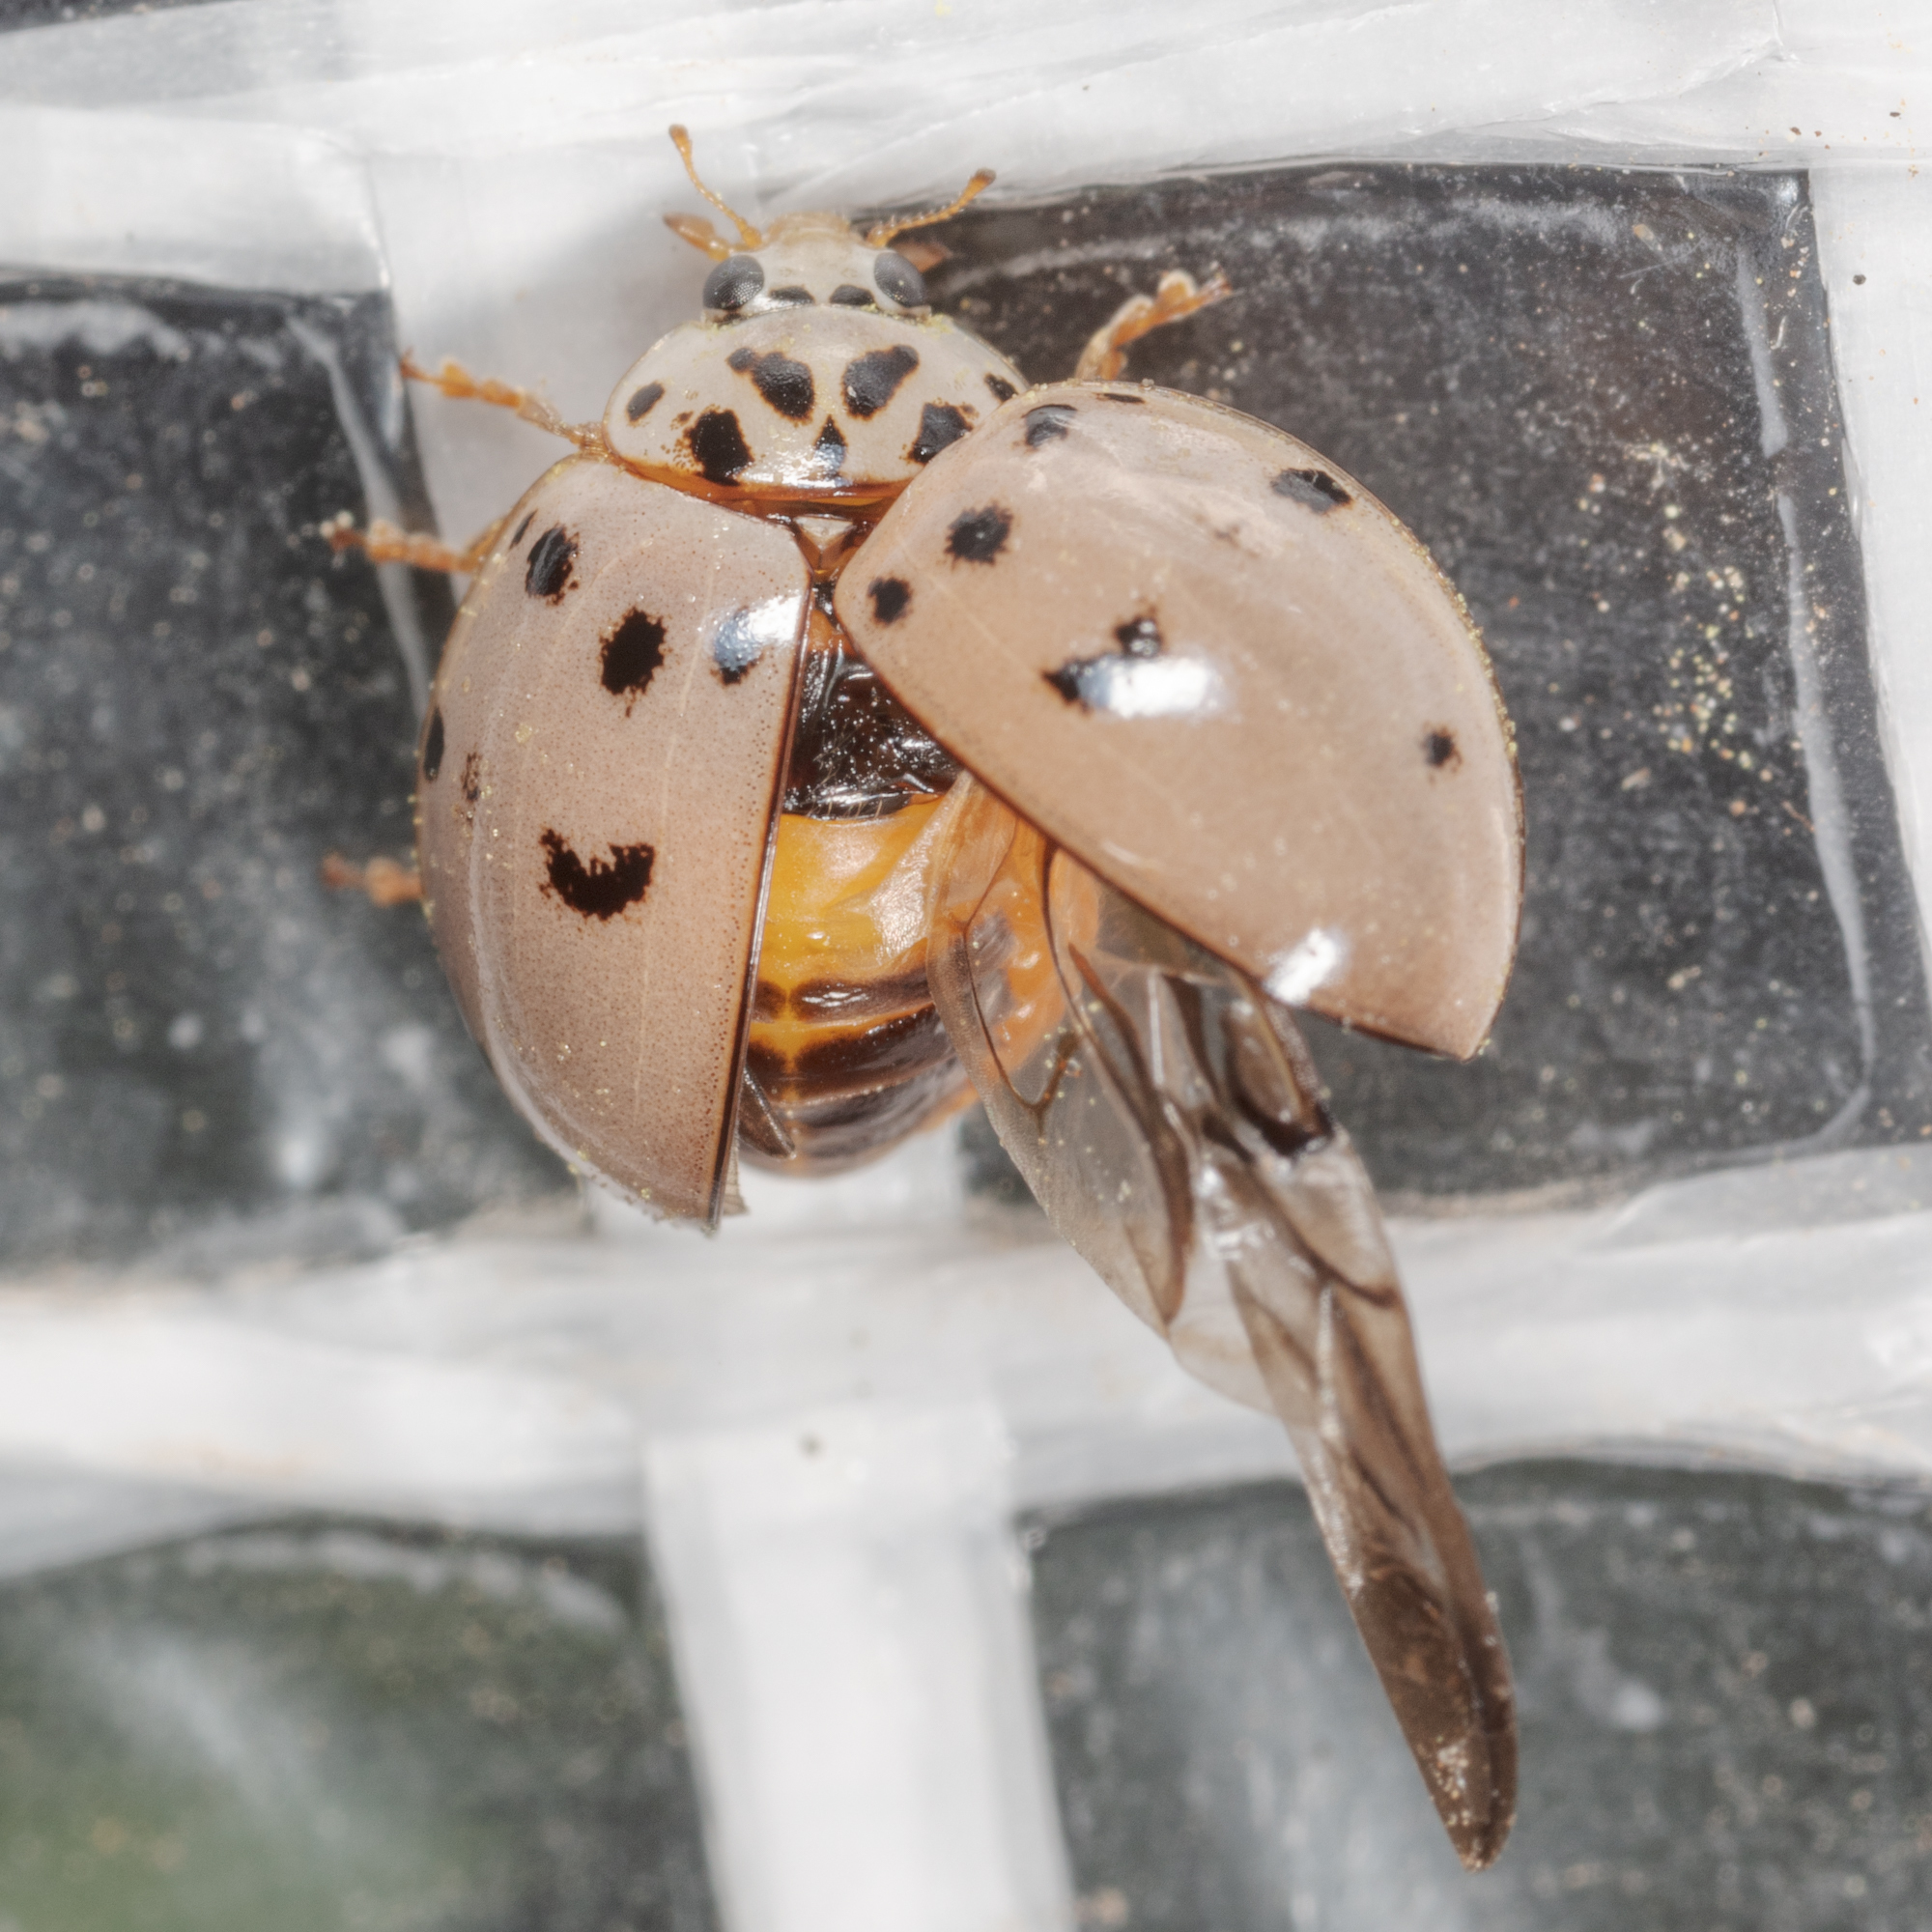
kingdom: Animalia
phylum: Arthropoda
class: Insecta
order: Coleoptera
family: Coccinellidae
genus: Olla
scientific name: Olla v-nigrum
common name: Ashy gray lady beetle
